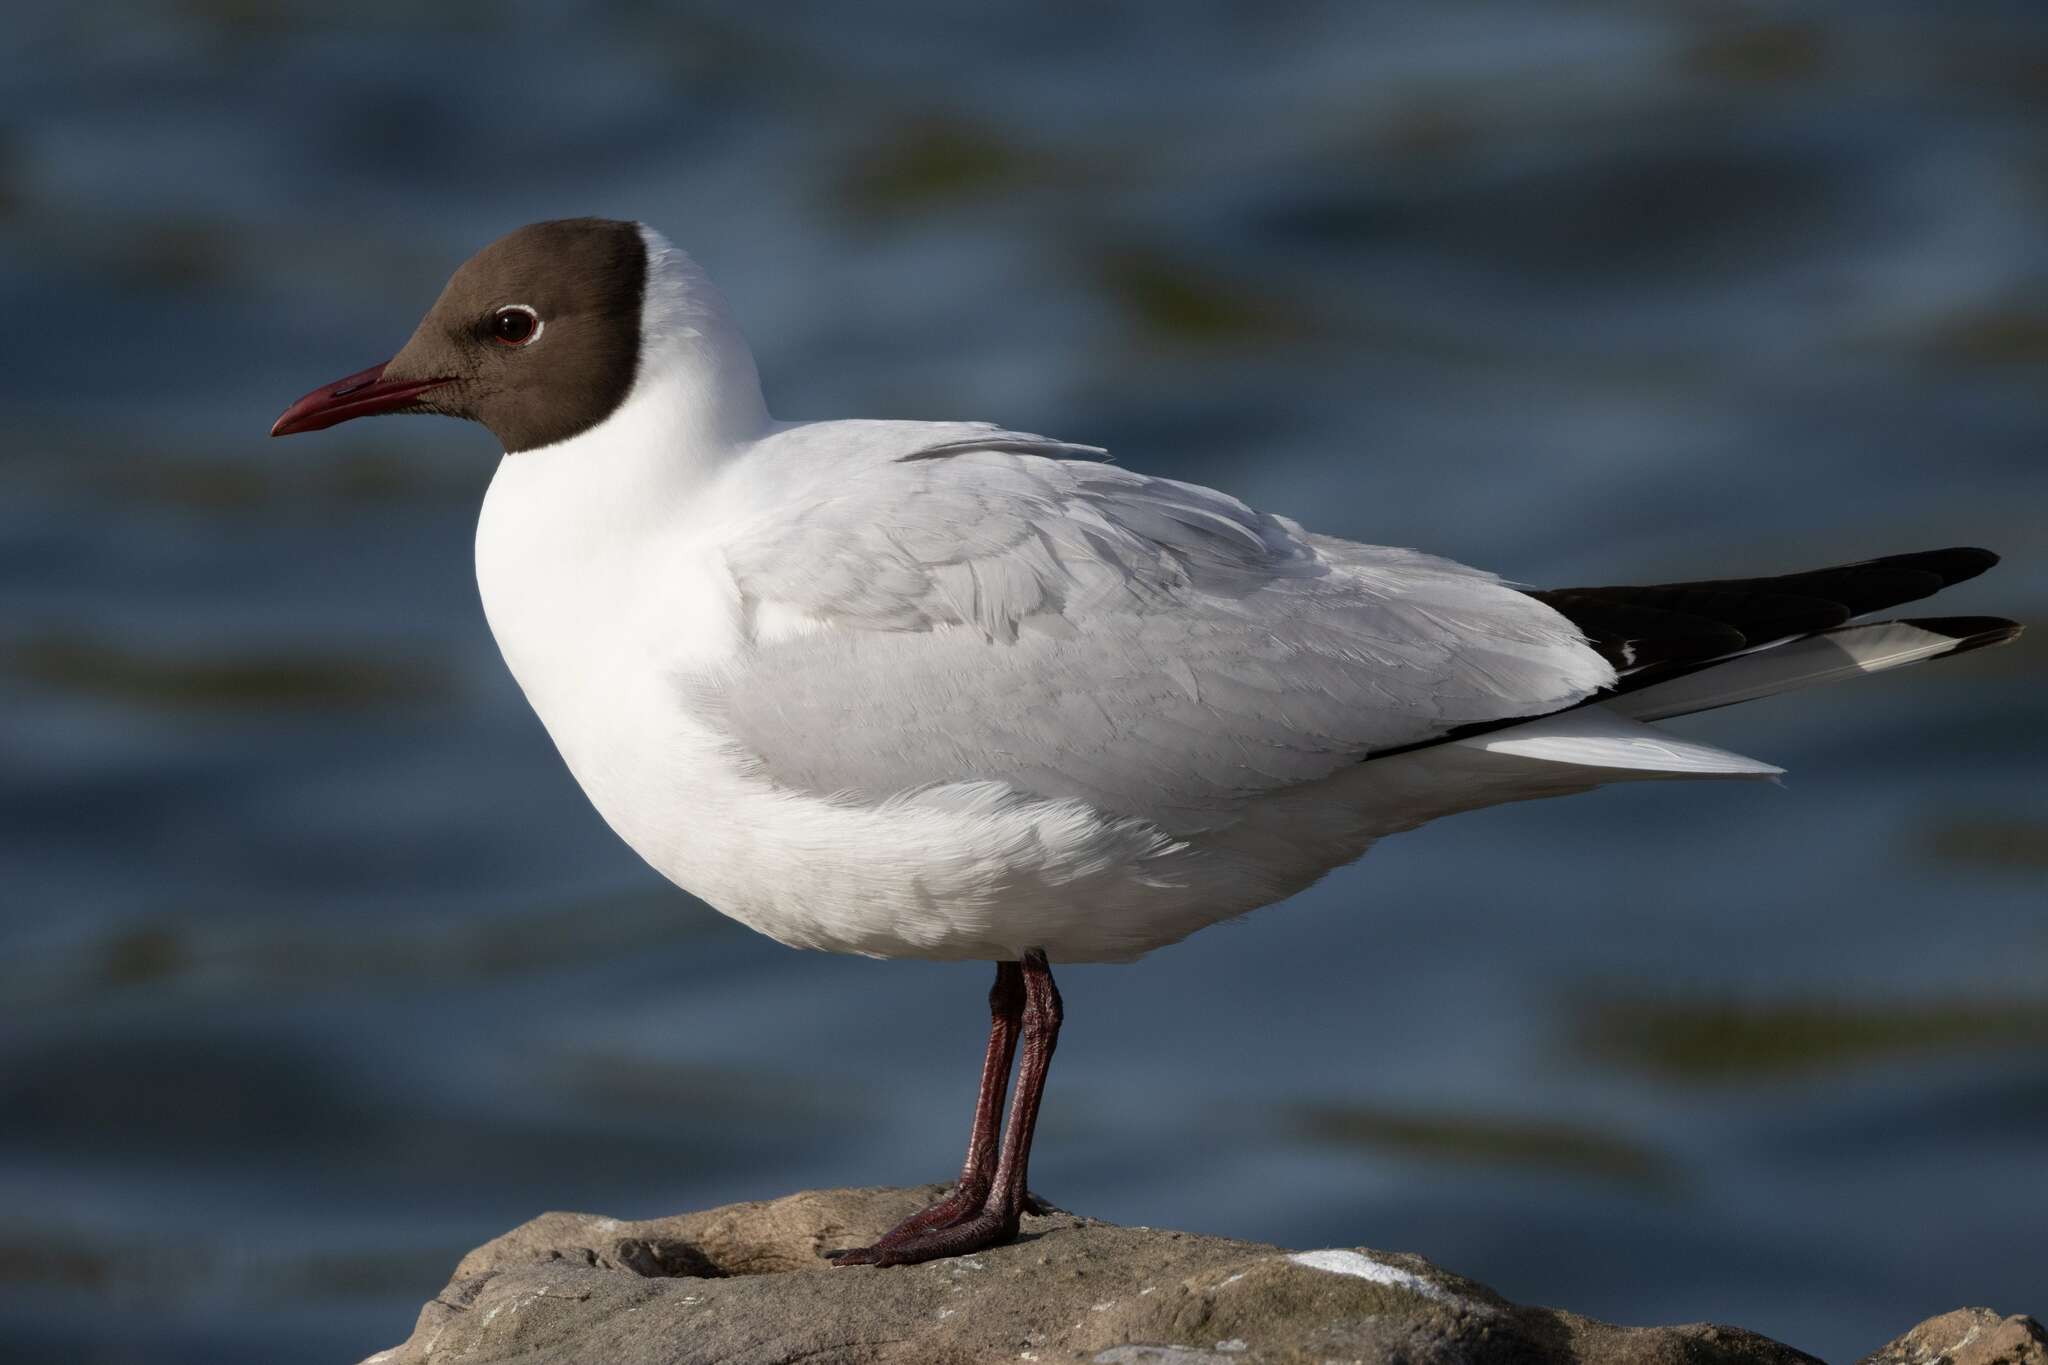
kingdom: Animalia
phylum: Chordata
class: Aves
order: Charadriiformes
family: Laridae
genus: Chroicocephalus
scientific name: Chroicocephalus ridibundus
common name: Black-headed gull
